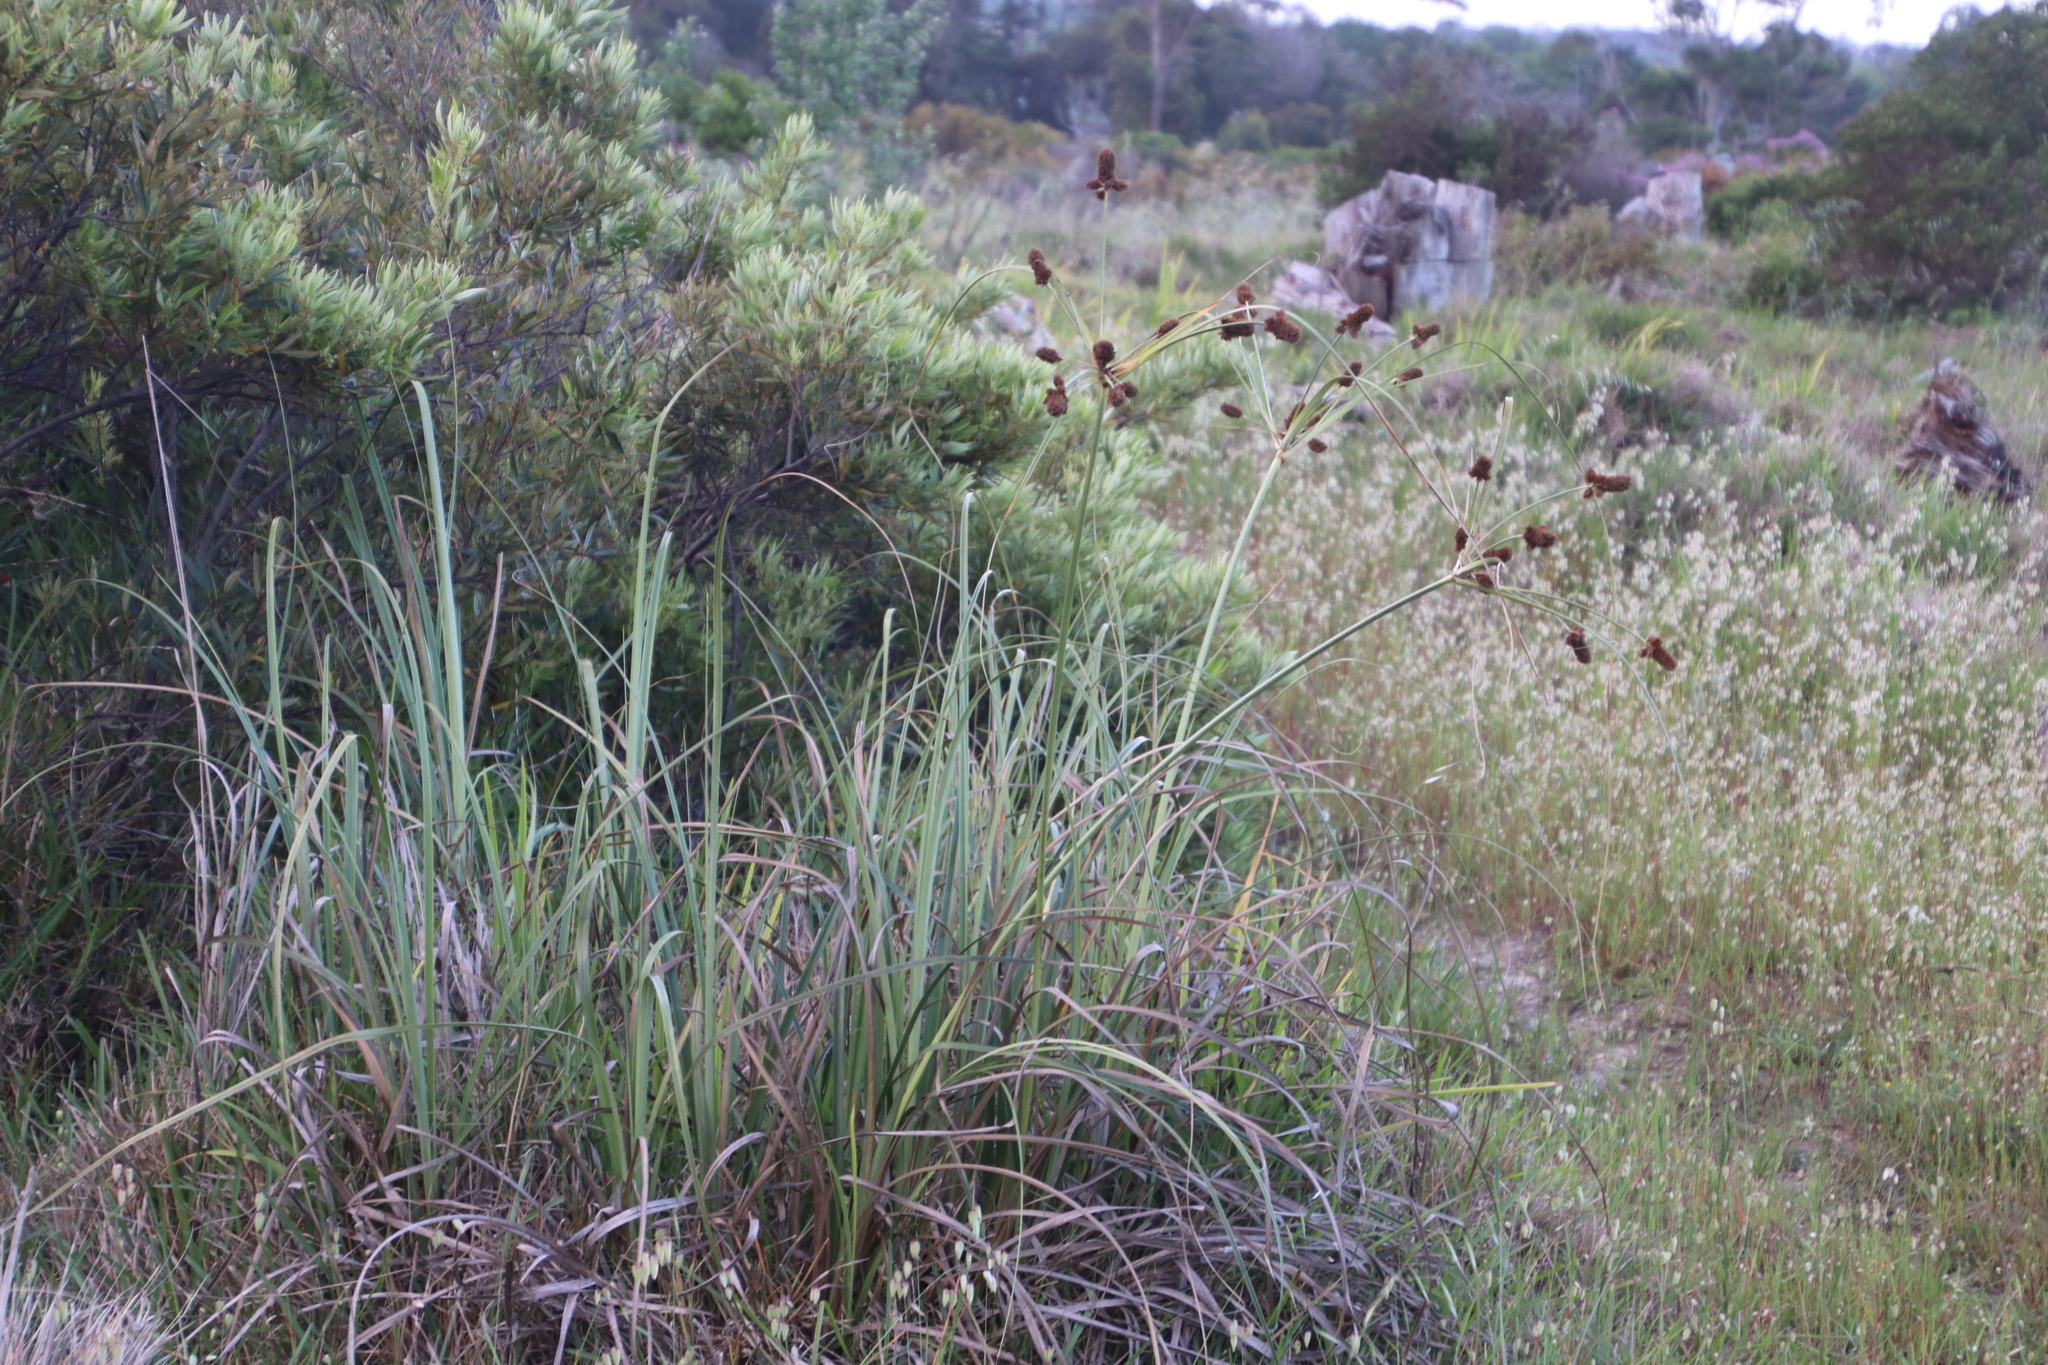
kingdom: Plantae
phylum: Tracheophyta
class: Liliopsida
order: Poales
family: Cyperaceae
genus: Cyperus
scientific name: Cyperus thunbergii
